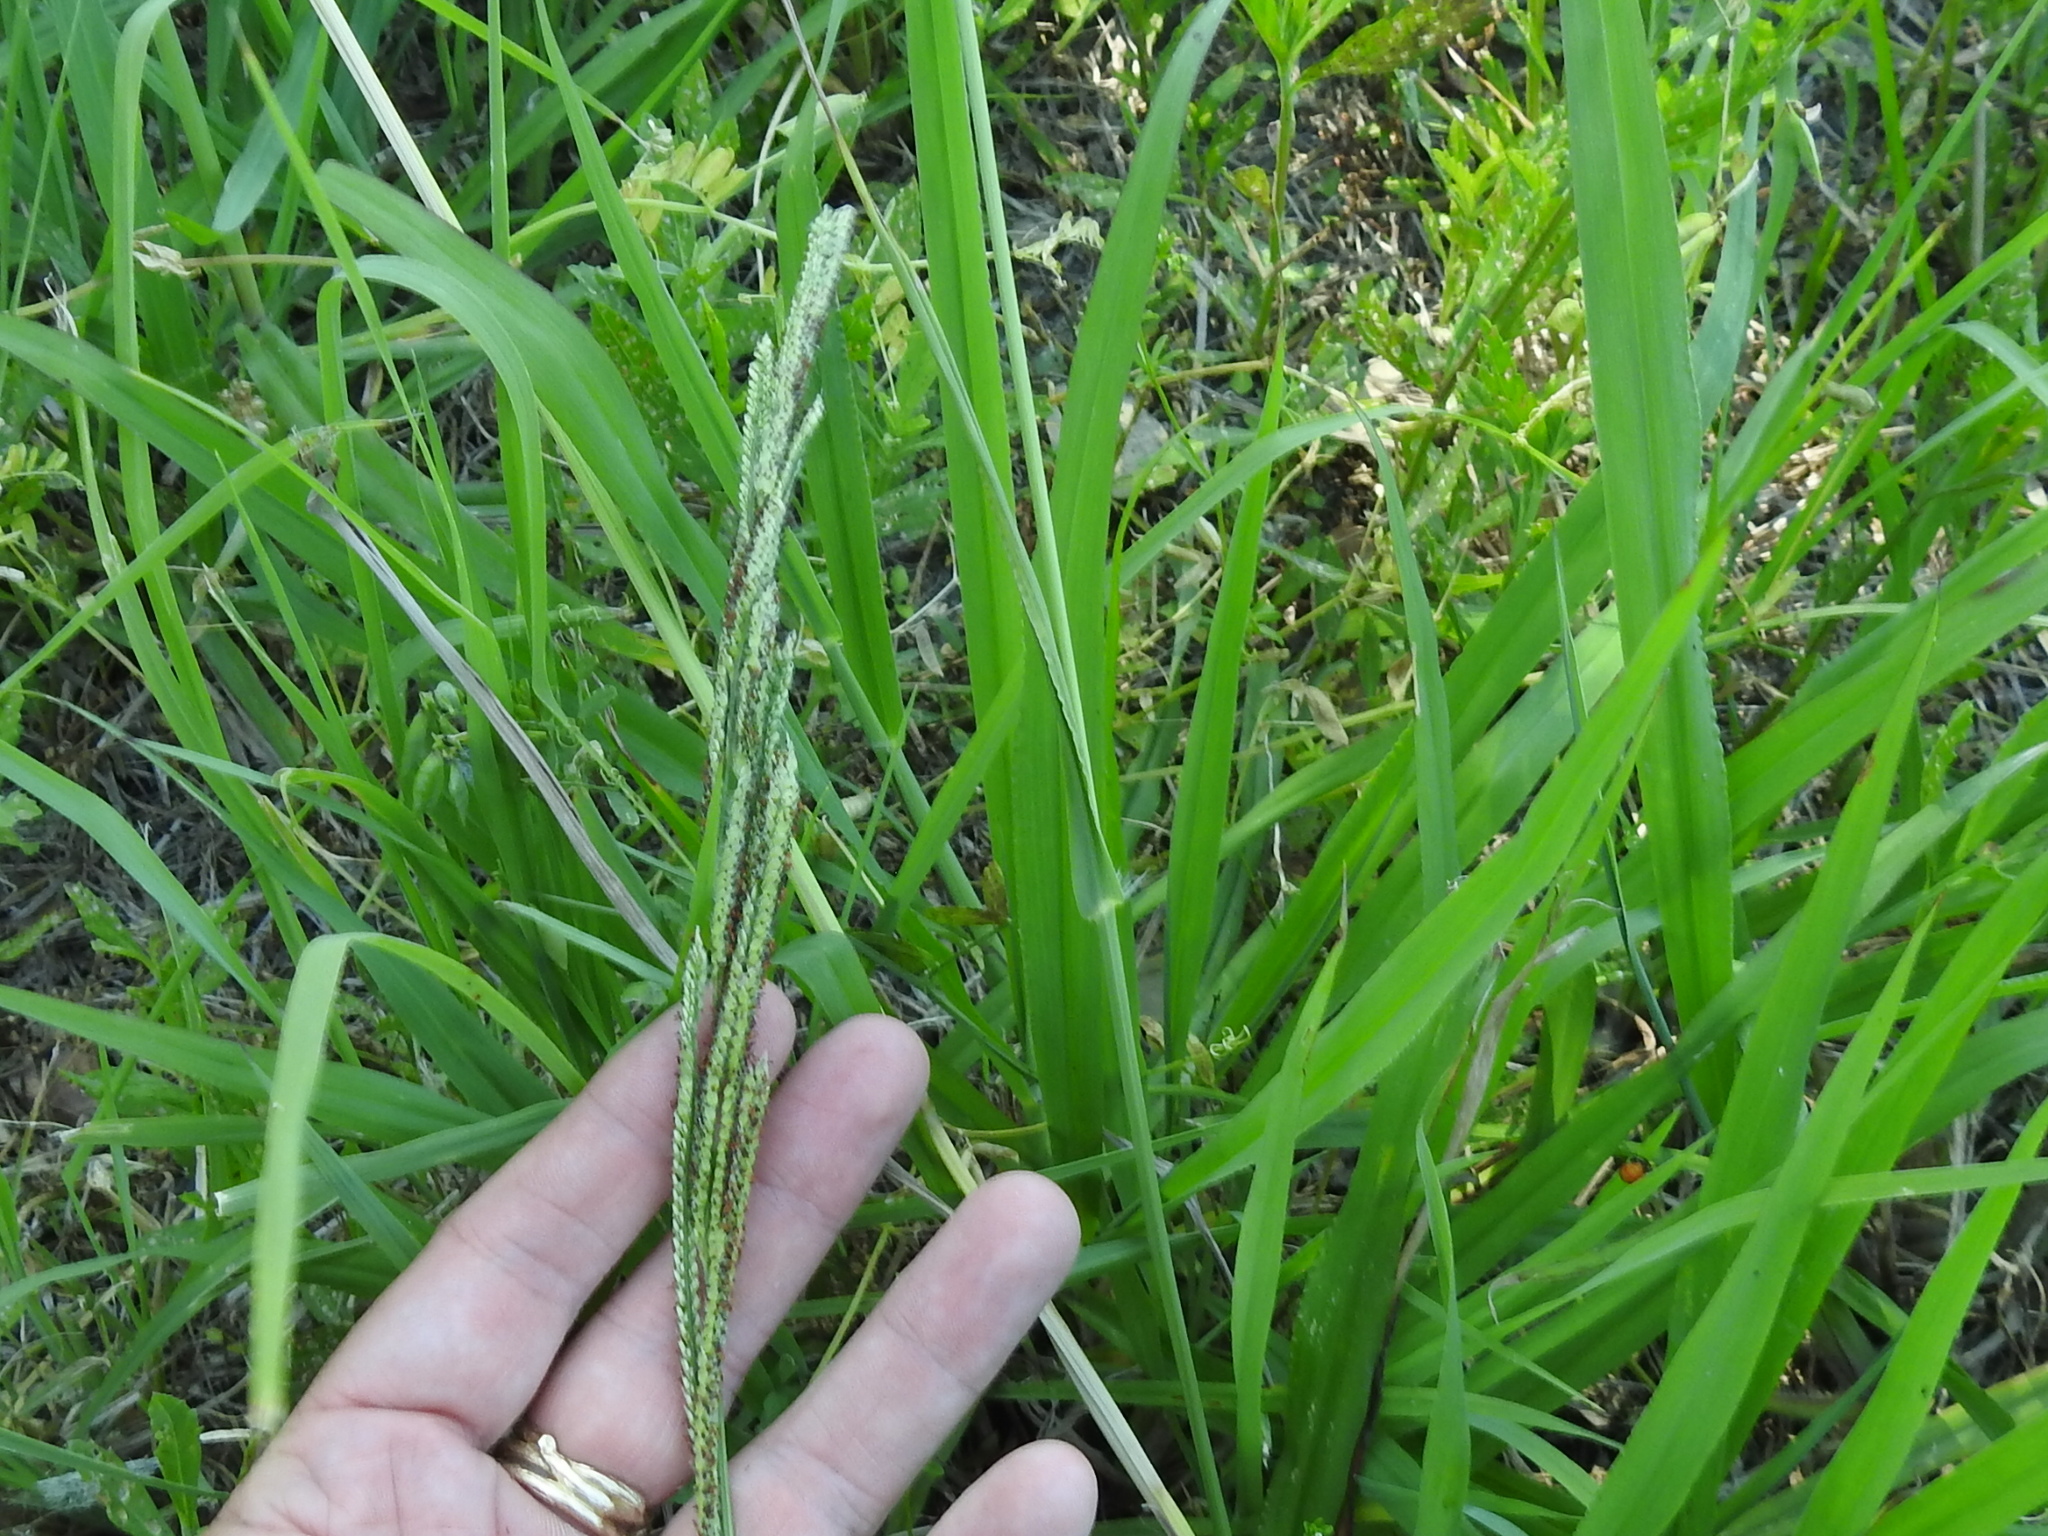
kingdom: Plantae
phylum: Tracheophyta
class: Liliopsida
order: Poales
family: Poaceae
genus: Paspalum
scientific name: Paspalum urvillei
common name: Vasey's grass
